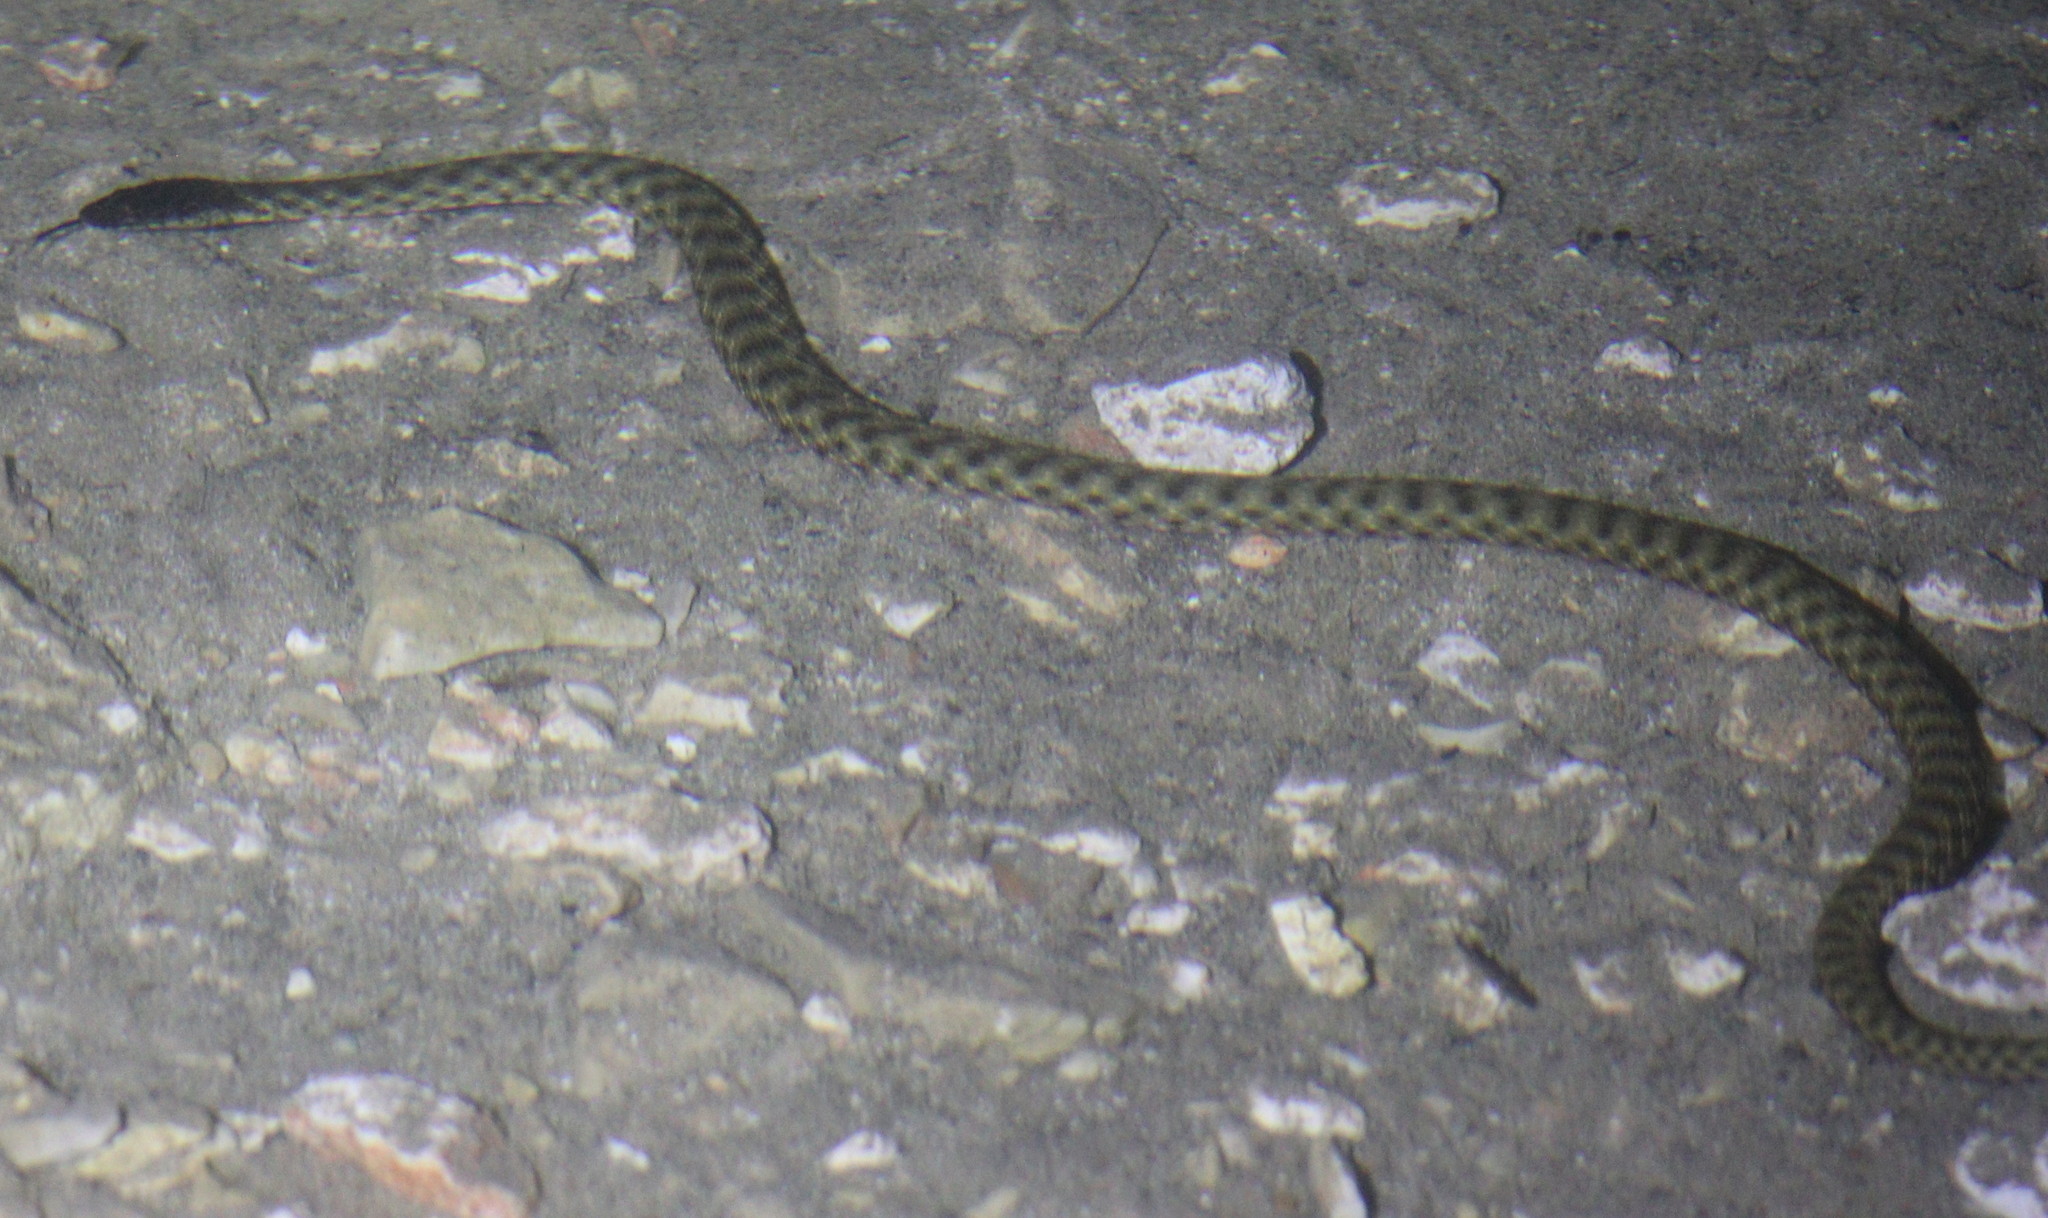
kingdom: Animalia
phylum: Chordata
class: Squamata
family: Colubridae
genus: Natrix
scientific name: Natrix tessellata
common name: Dice snake
